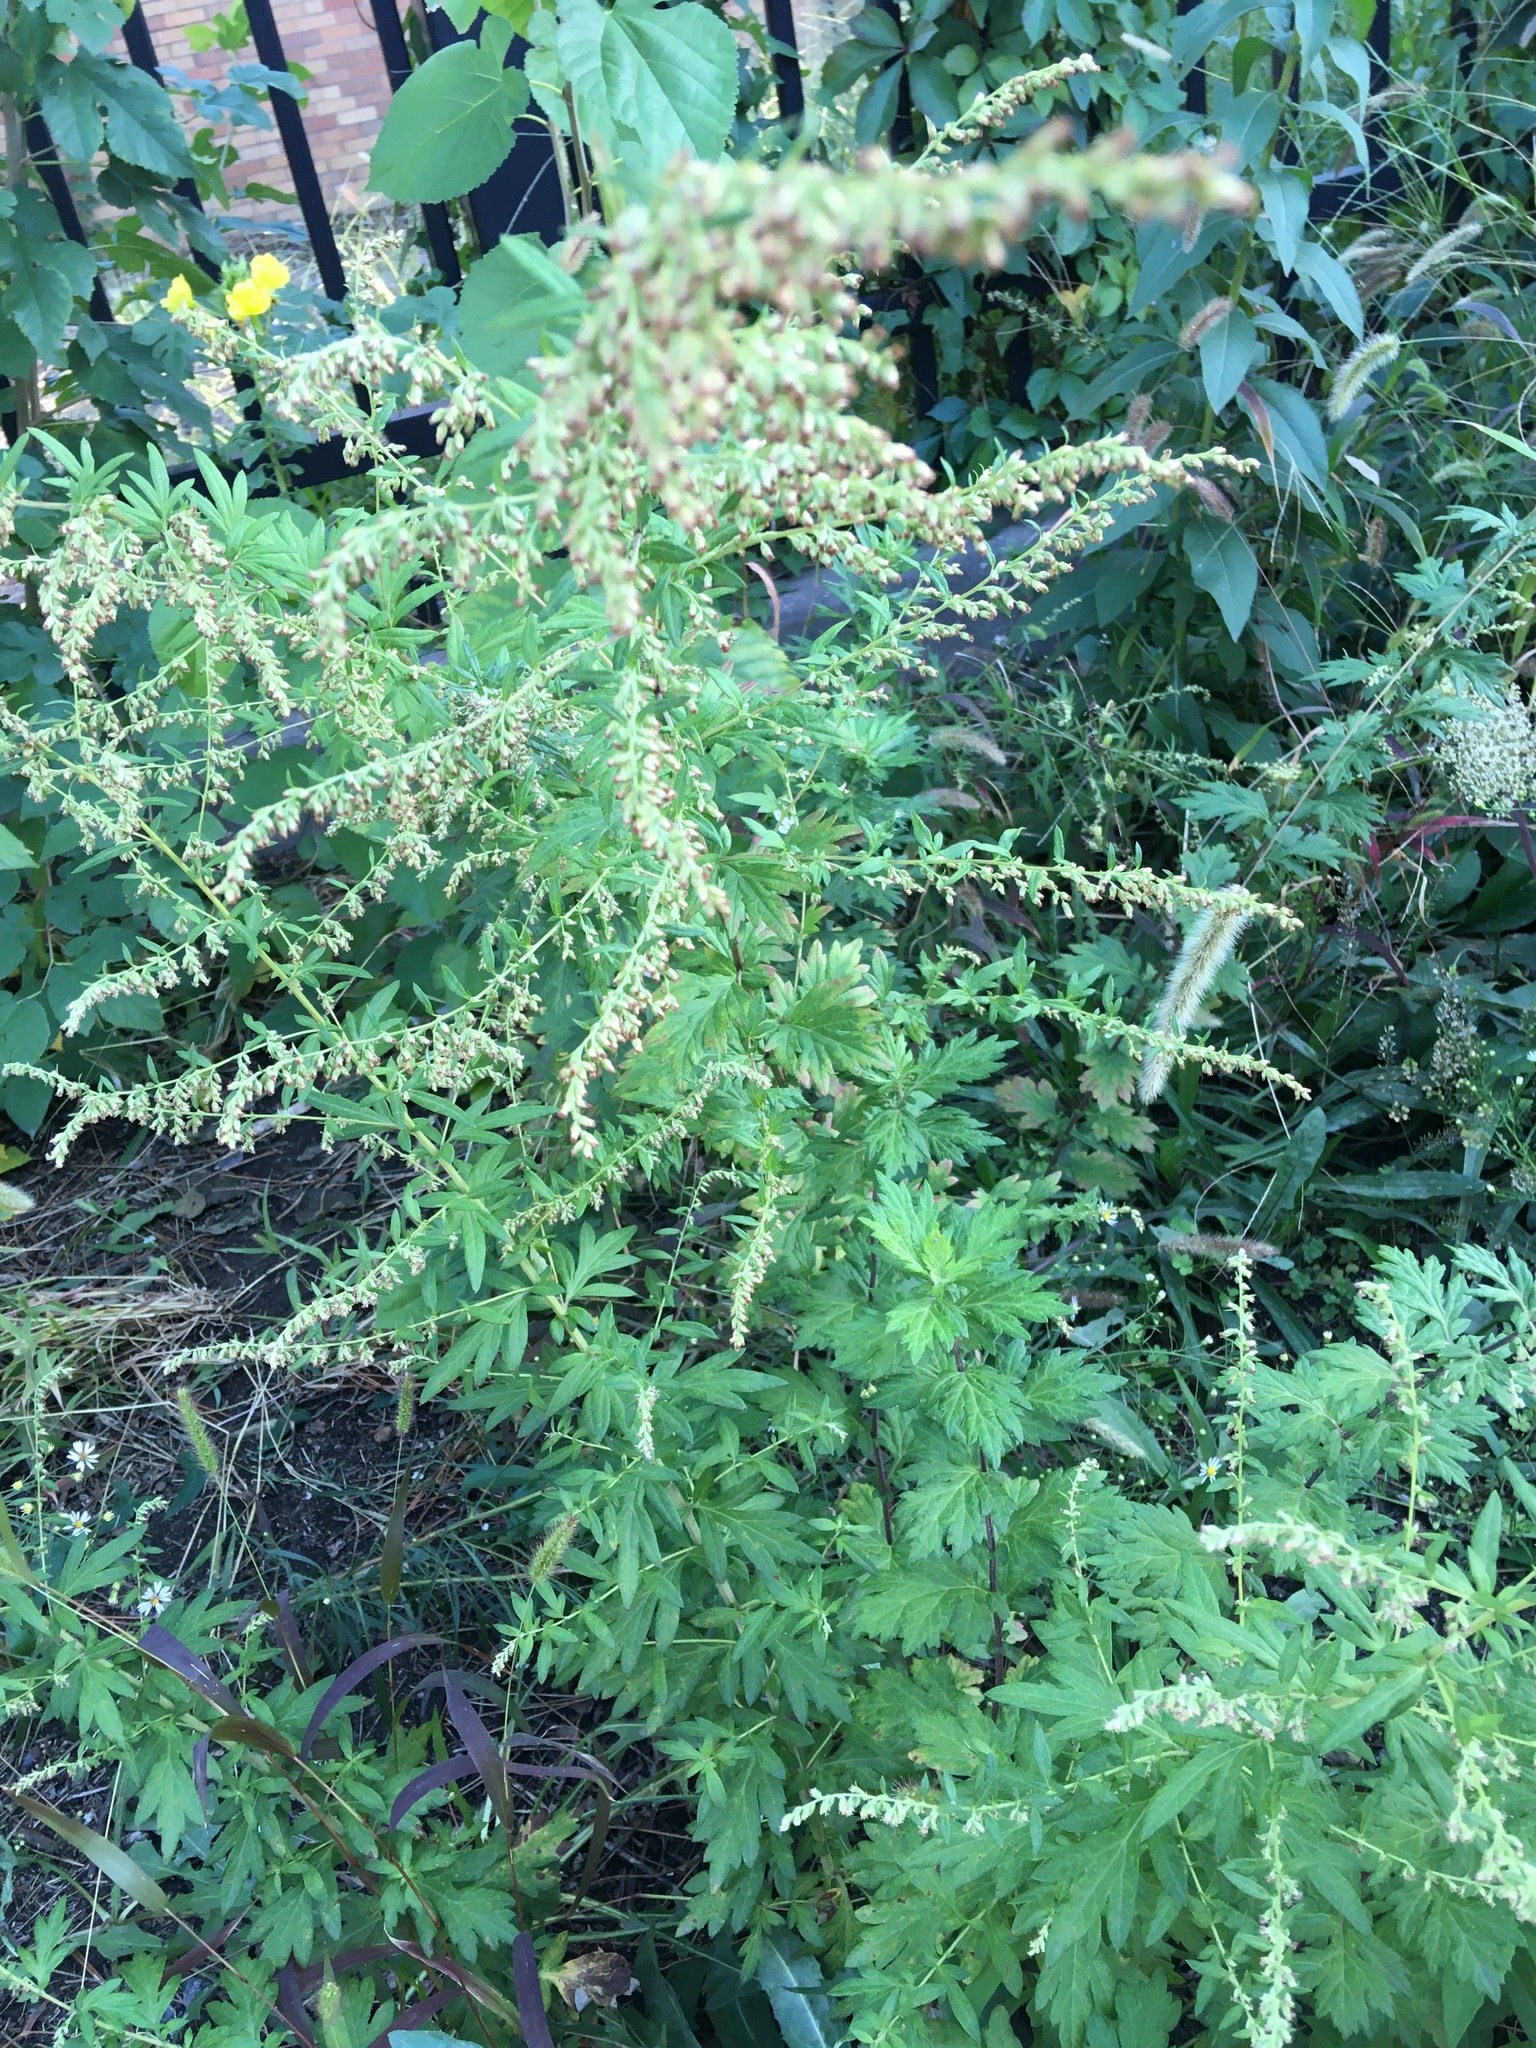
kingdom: Plantae
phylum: Tracheophyta
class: Magnoliopsida
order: Asterales
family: Asteraceae
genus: Artemisia
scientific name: Artemisia vulgaris
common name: Mugwort
